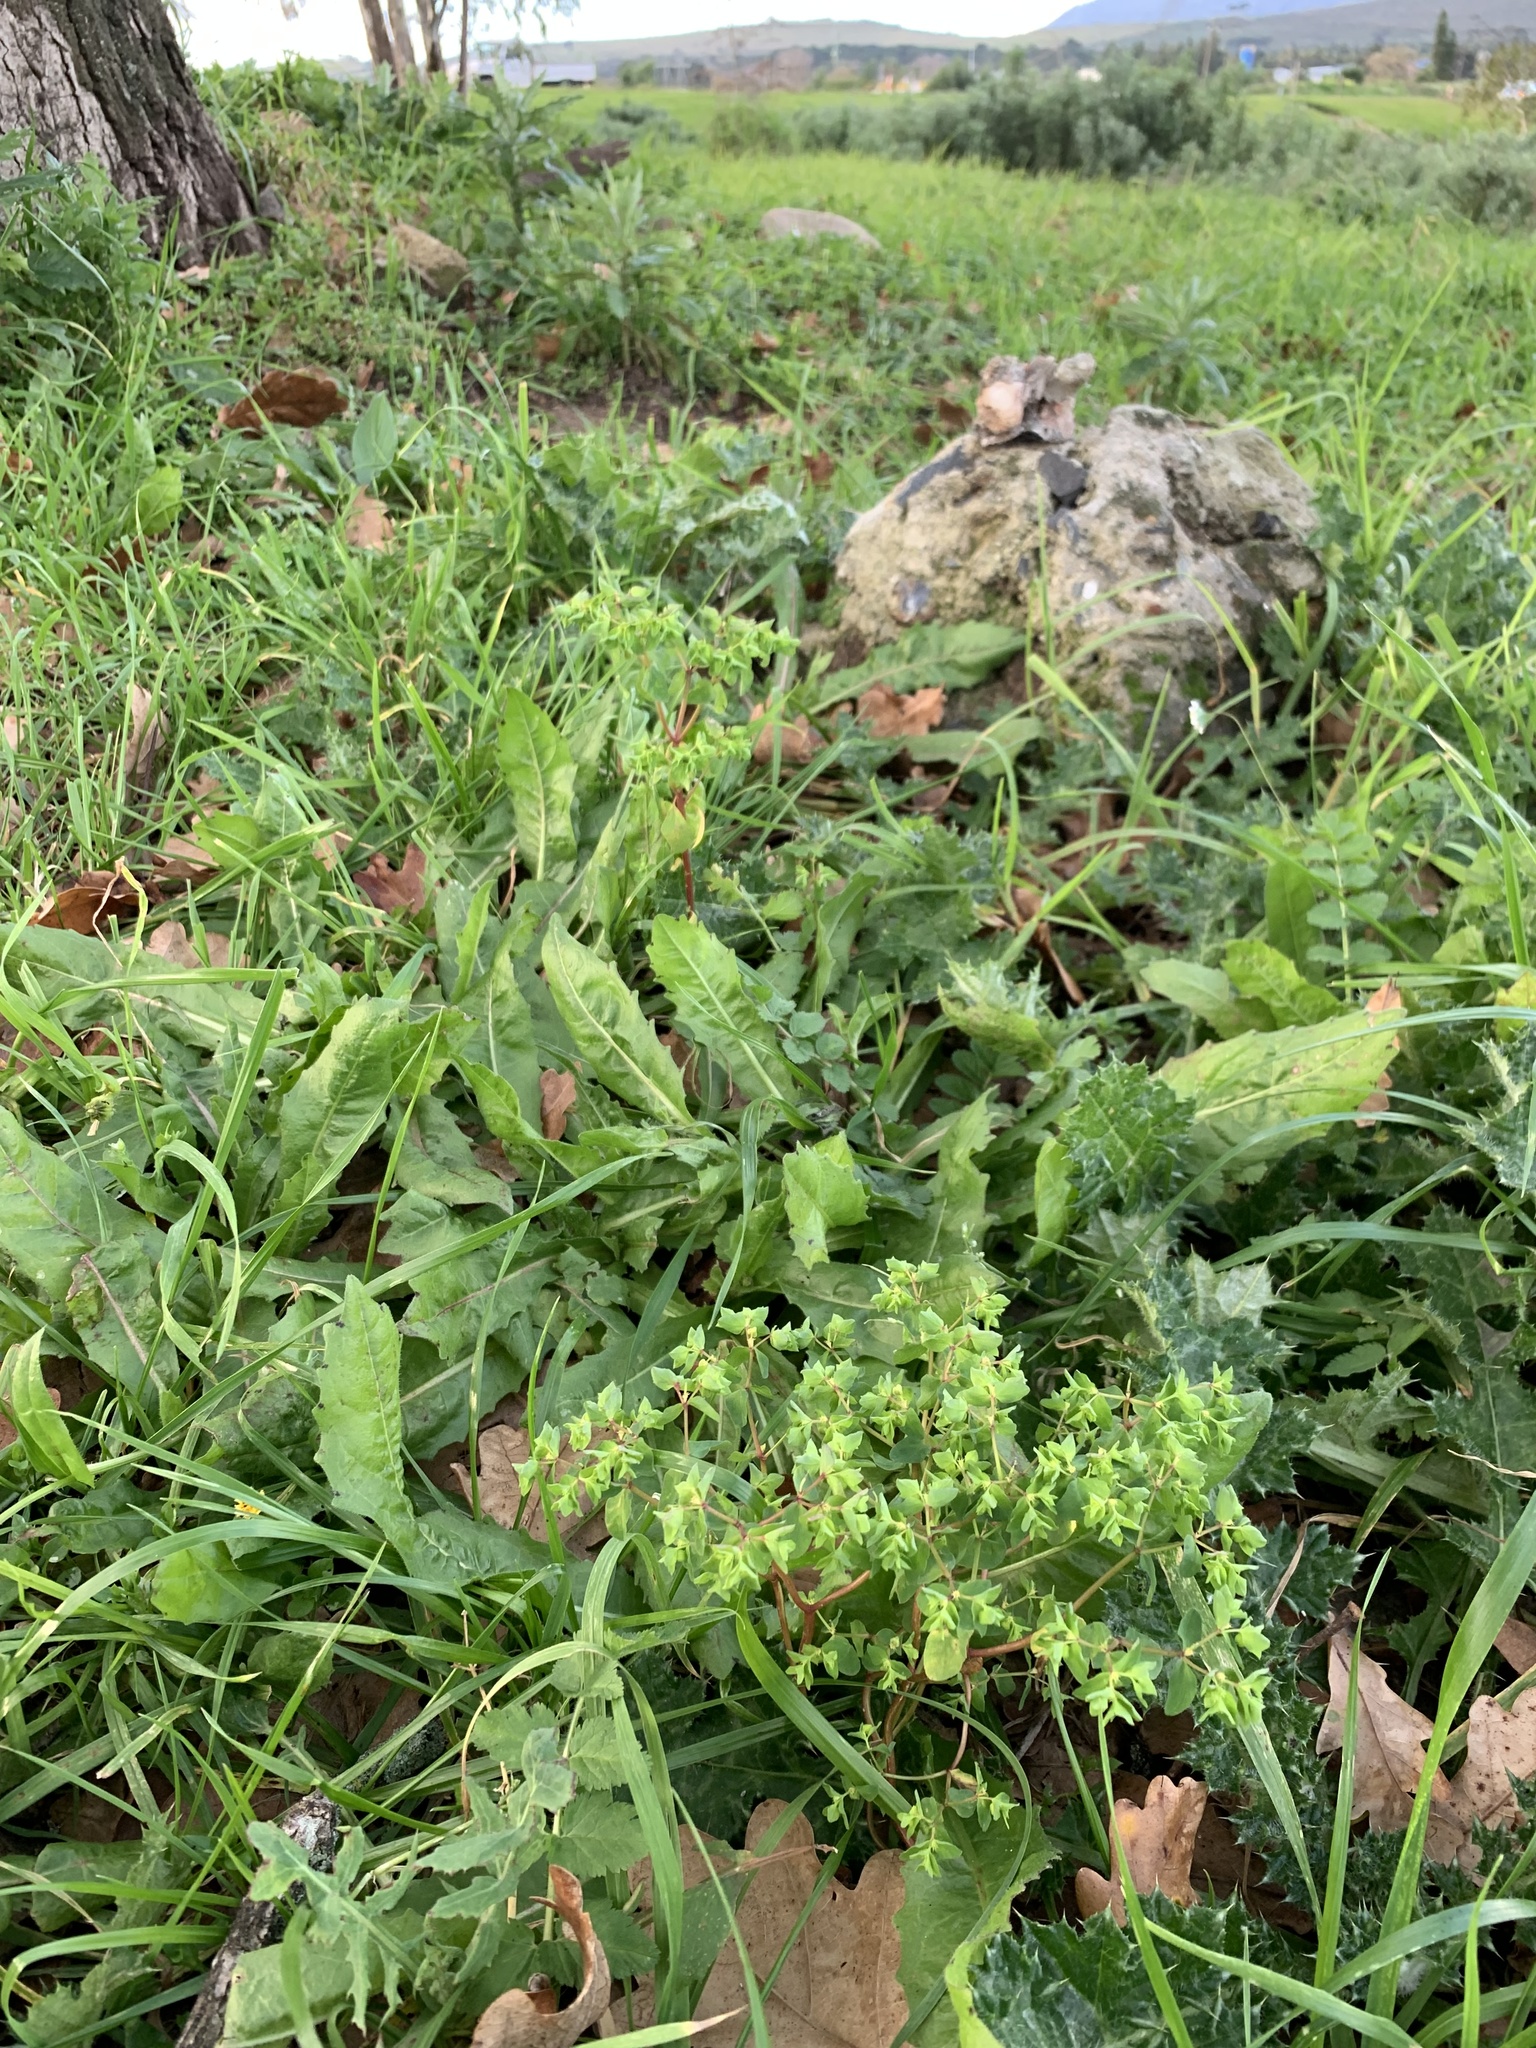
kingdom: Plantae
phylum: Tracheophyta
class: Magnoliopsida
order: Malpighiales
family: Euphorbiaceae
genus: Euphorbia
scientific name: Euphorbia peplus
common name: Petty spurge
